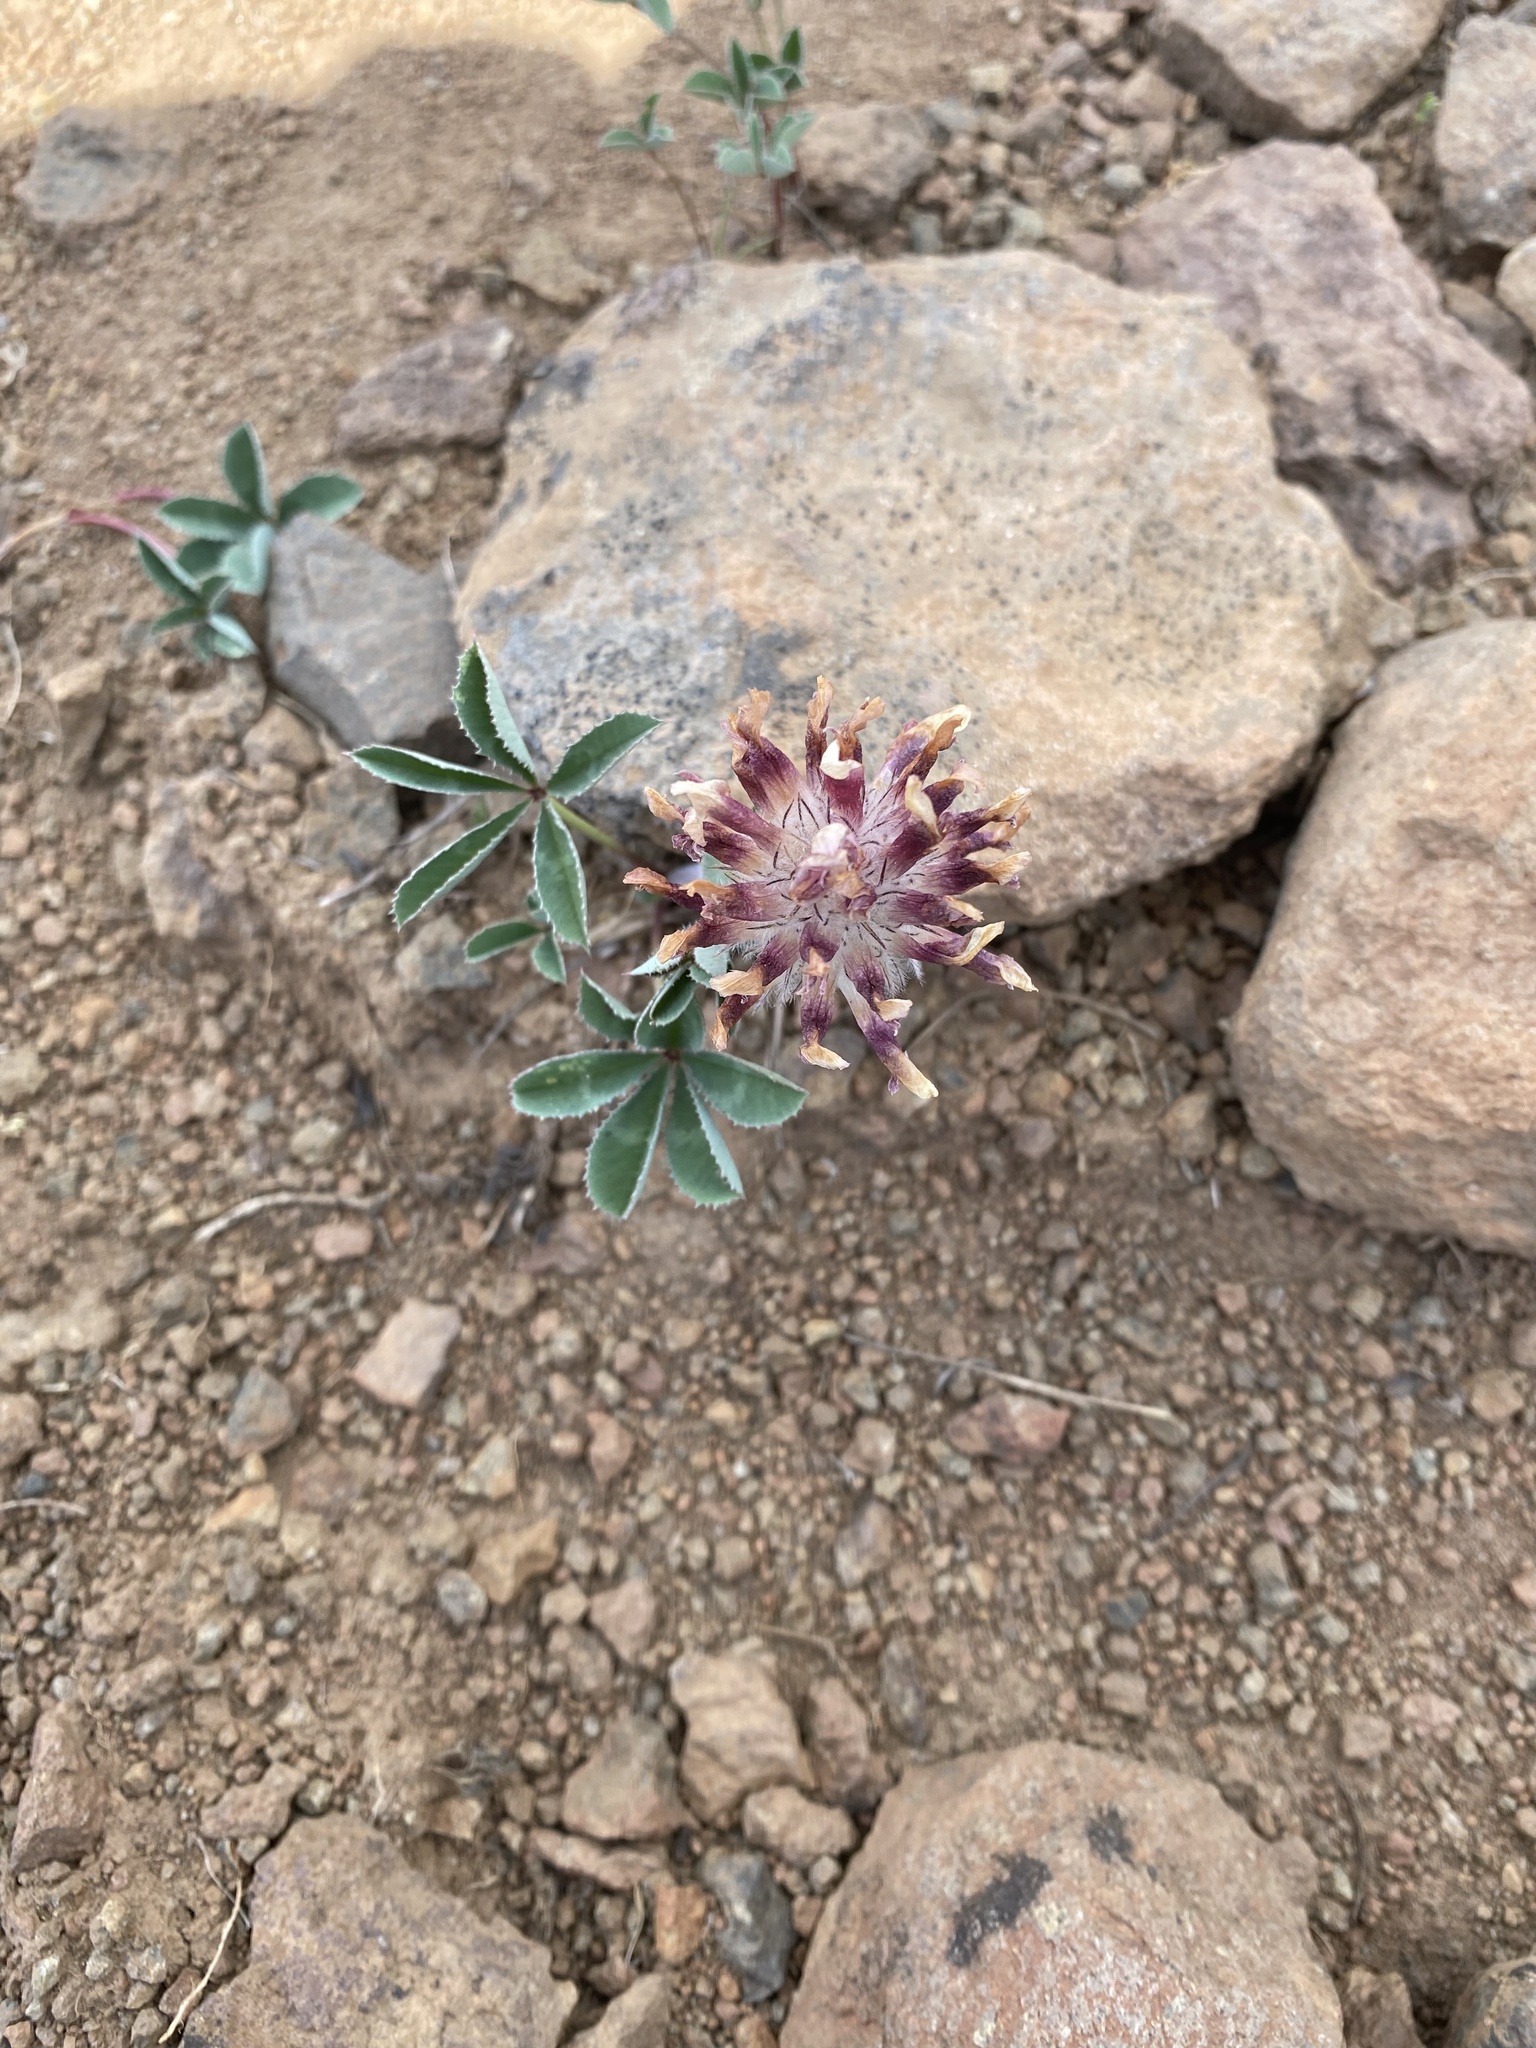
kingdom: Plantae
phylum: Tracheophyta
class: Magnoliopsida
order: Fabales
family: Fabaceae
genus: Trifolium
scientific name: Trifolium macrocephalum
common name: Large-head clover
